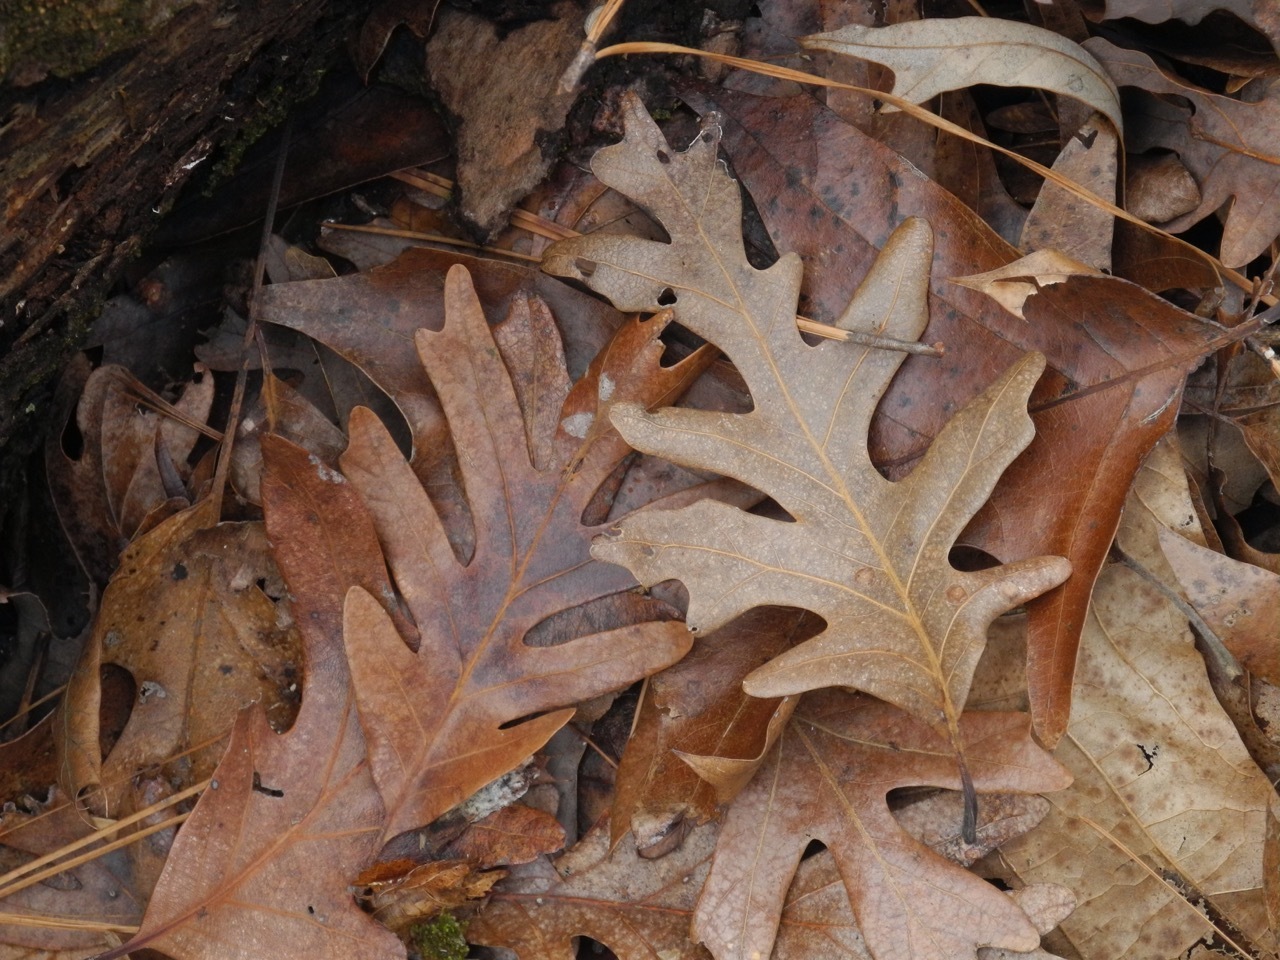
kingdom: Plantae
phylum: Tracheophyta
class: Magnoliopsida
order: Fagales
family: Fagaceae
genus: Quercus
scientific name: Quercus alba
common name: White oak
